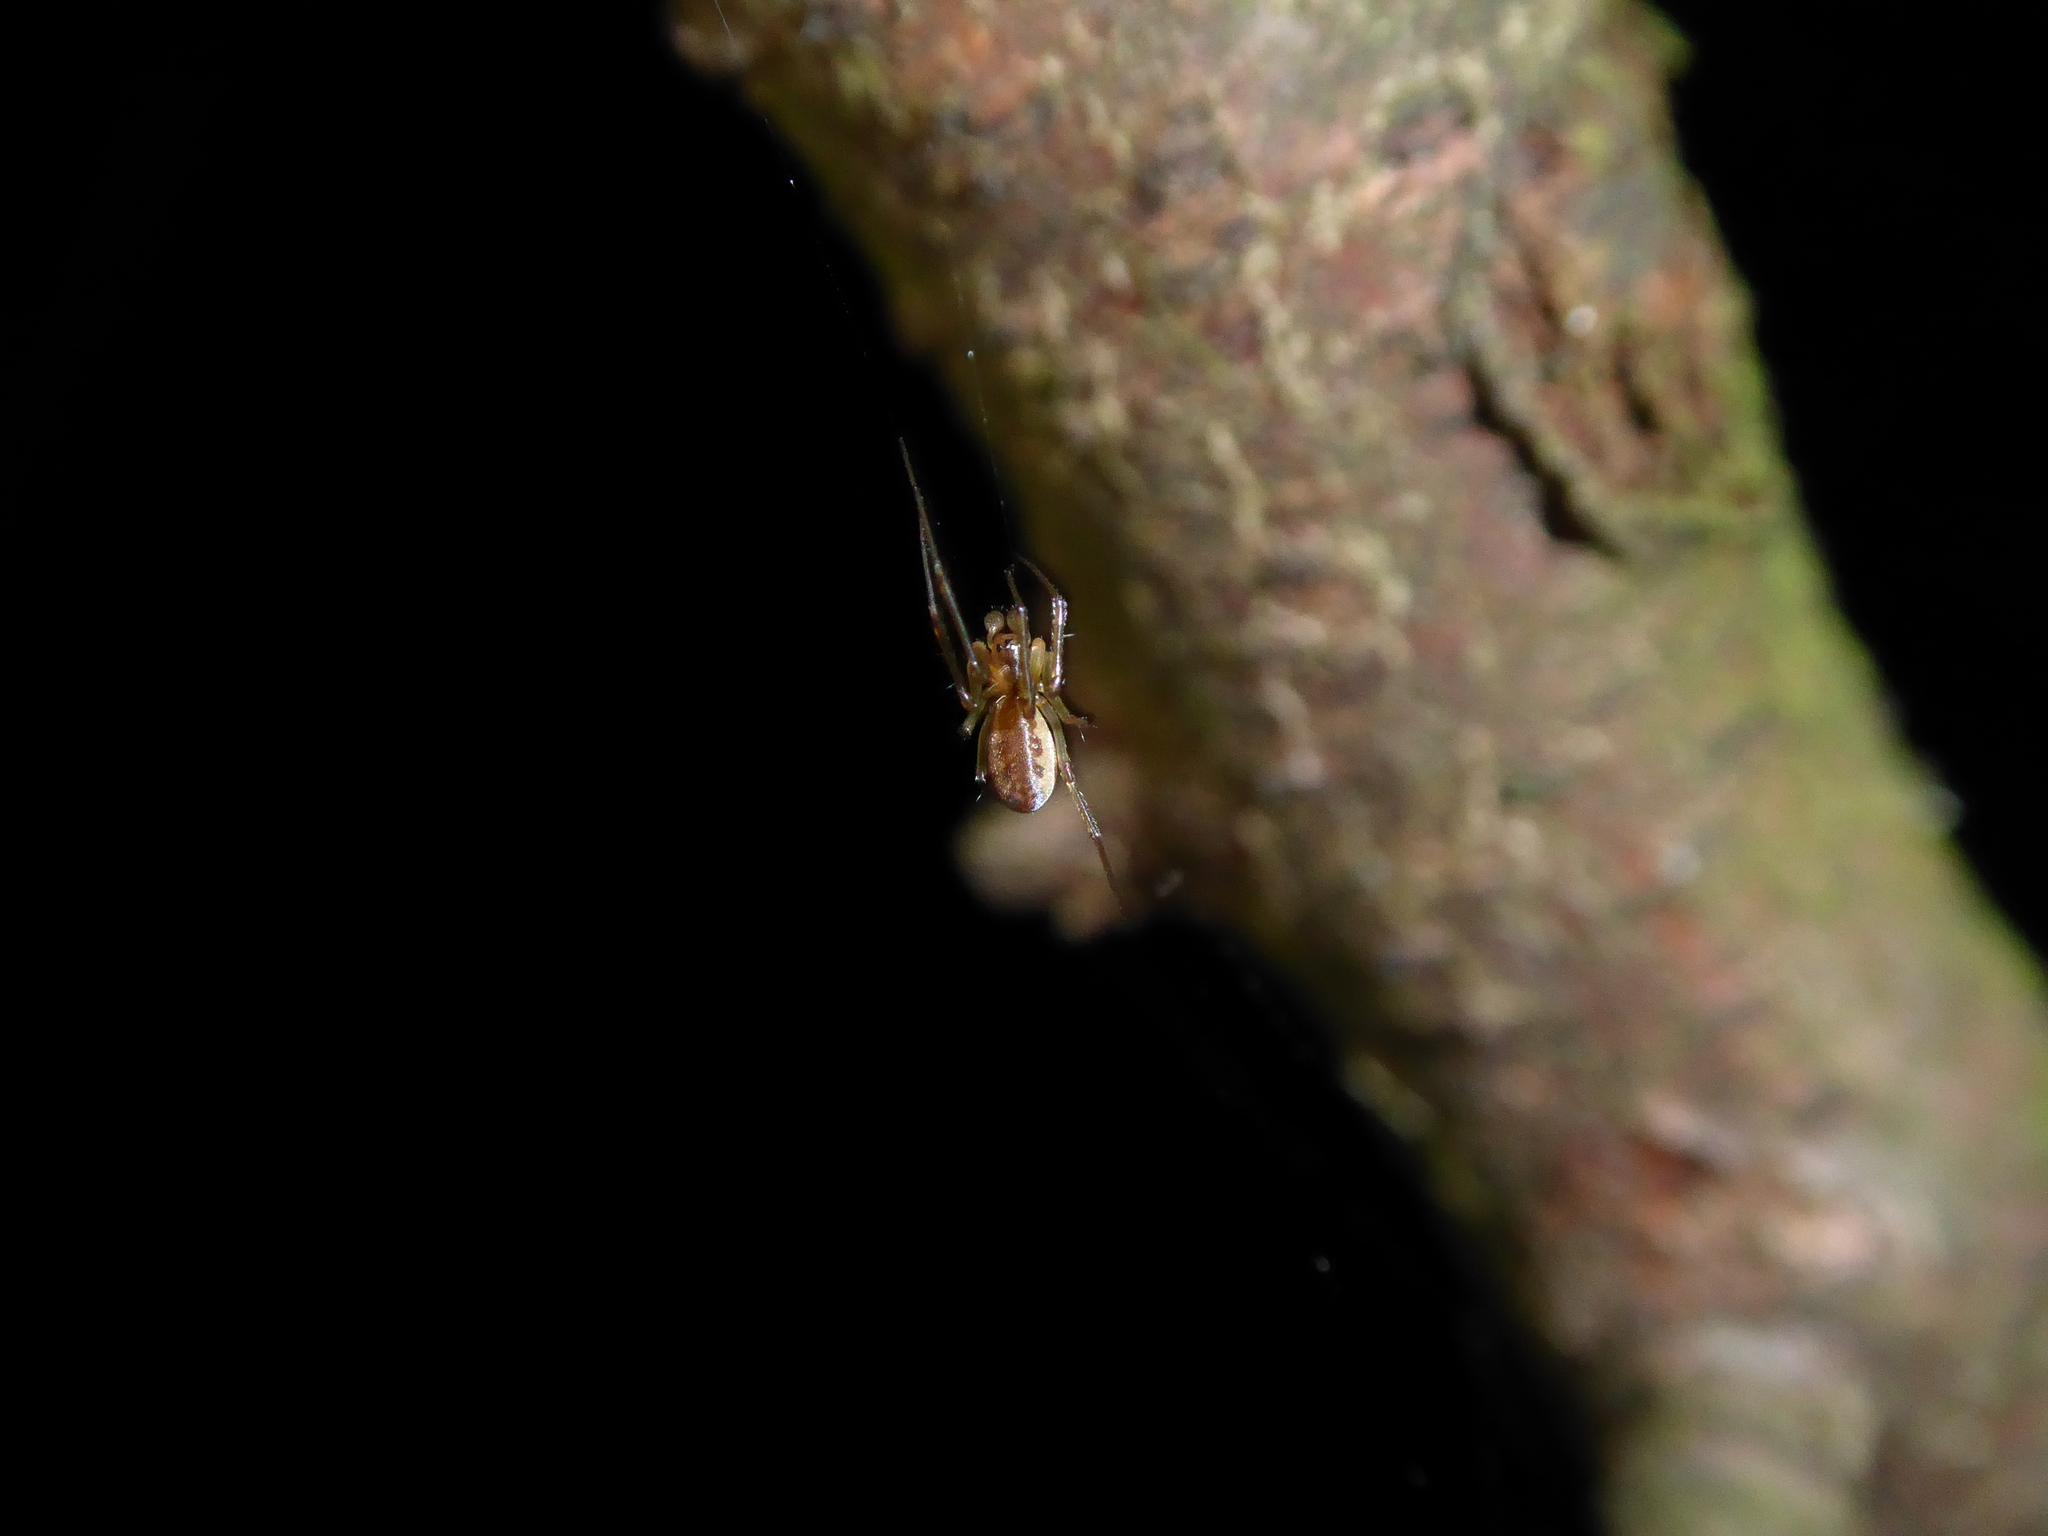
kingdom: Animalia
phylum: Arthropoda
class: Arachnida
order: Araneae
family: Linyphiidae
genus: Neriene
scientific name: Neriene peltata
